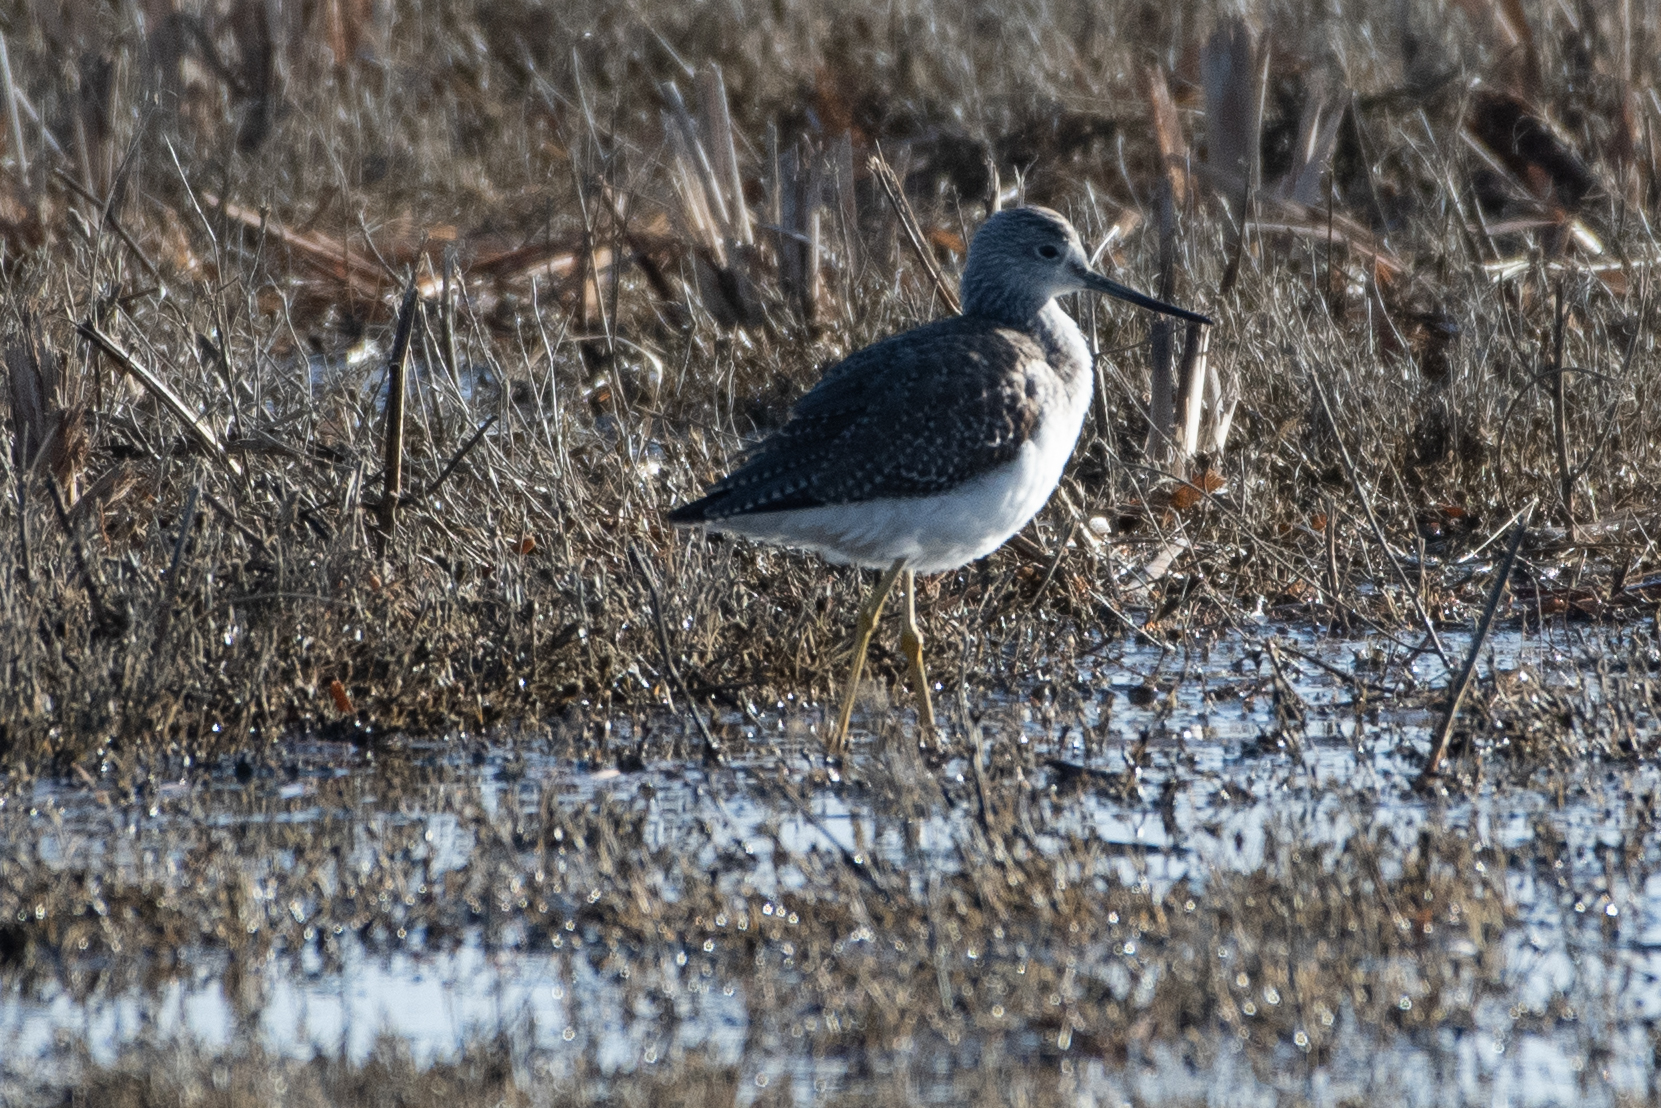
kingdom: Animalia
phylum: Chordata
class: Aves
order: Charadriiformes
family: Scolopacidae
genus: Tringa
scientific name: Tringa melanoleuca
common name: Greater yellowlegs
